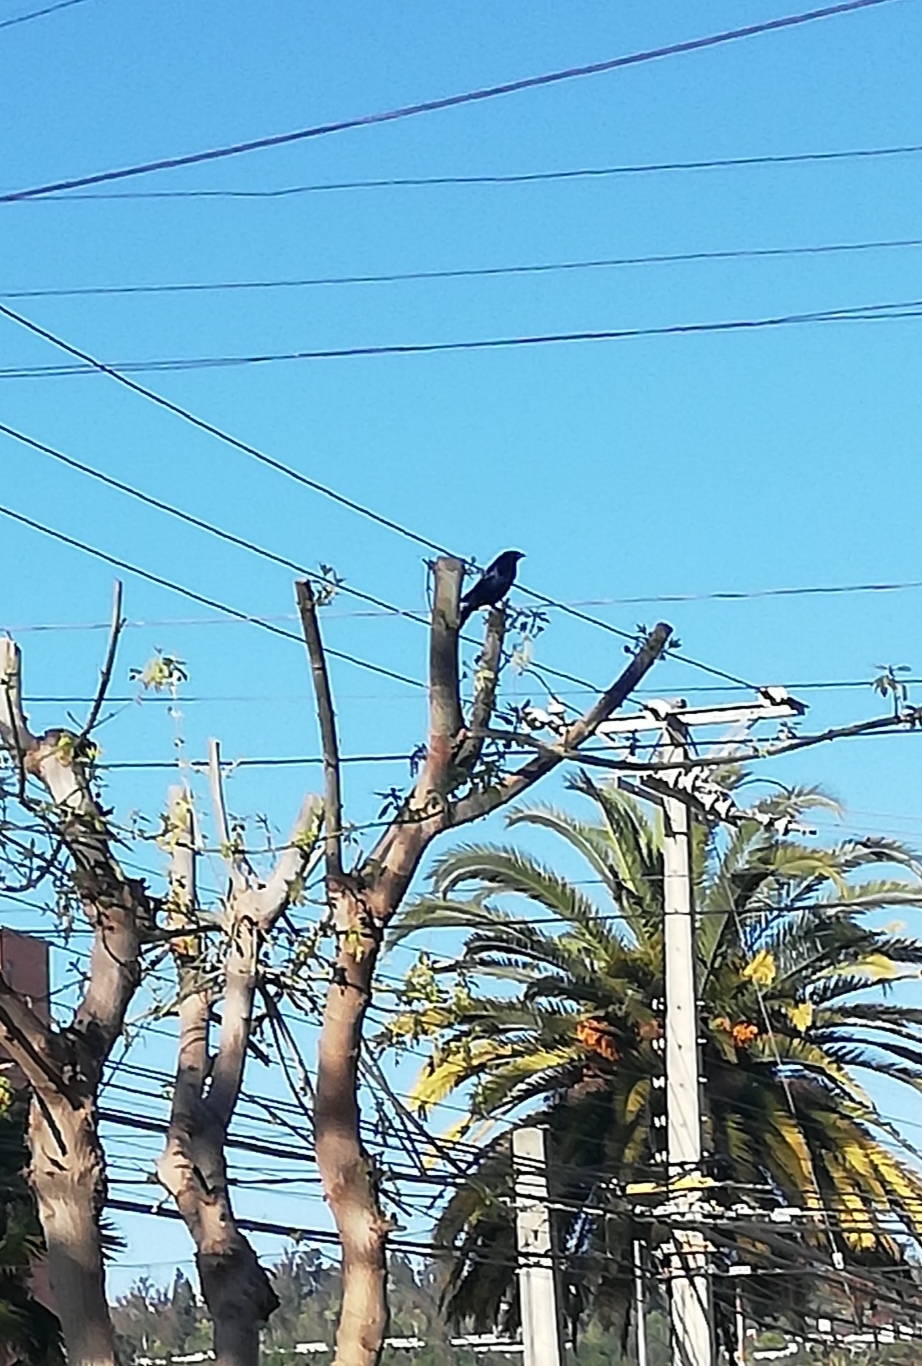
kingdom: Animalia
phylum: Chordata
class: Aves
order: Passeriformes
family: Icteridae
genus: Molothrus
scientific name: Molothrus bonariensis
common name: Shiny cowbird
